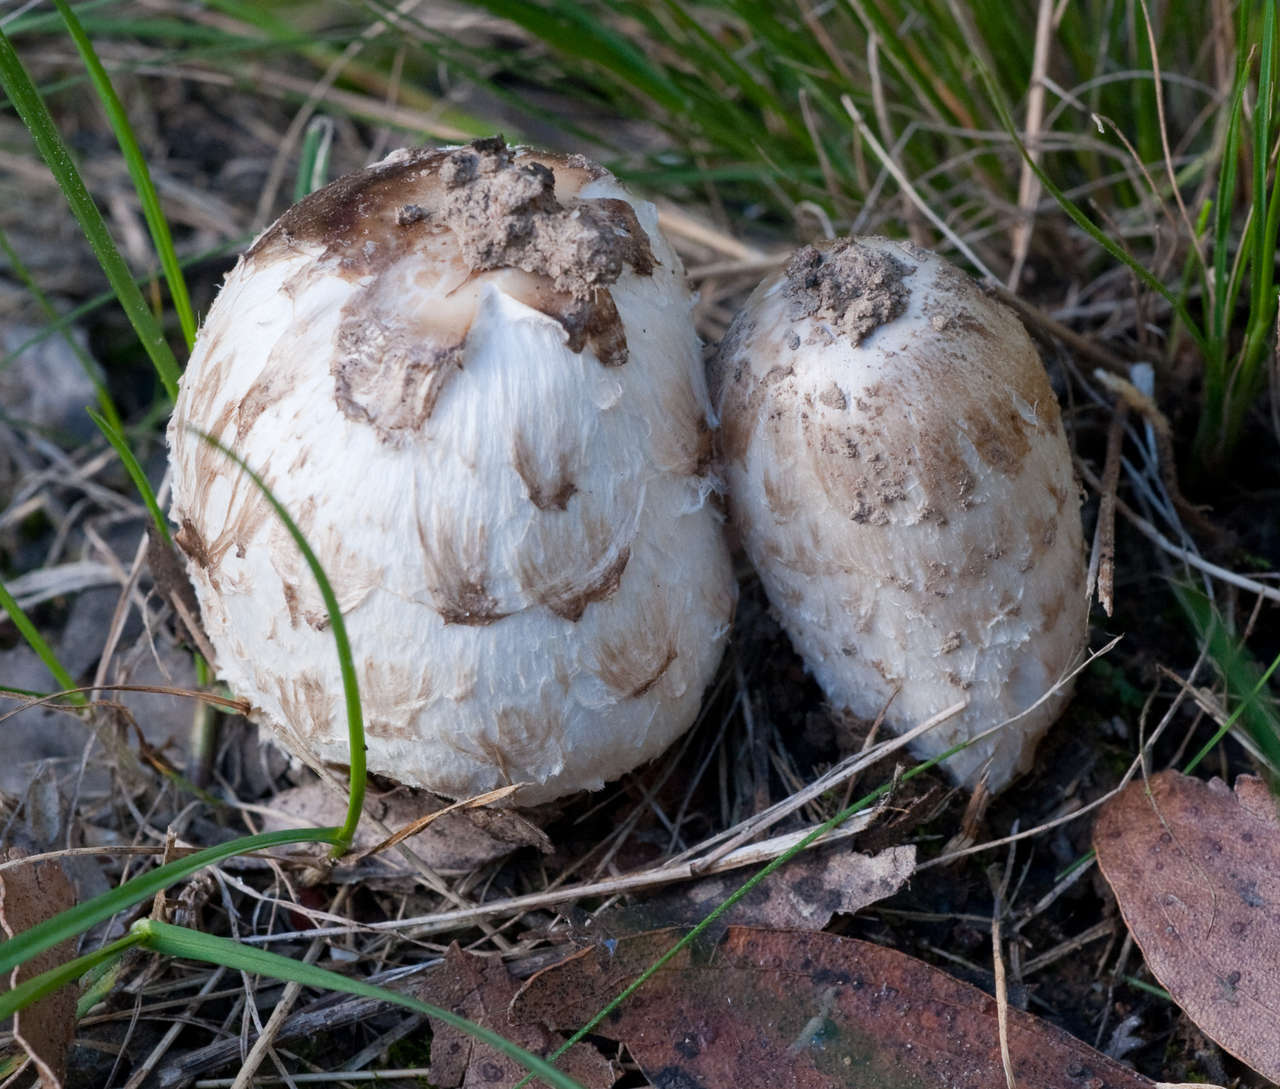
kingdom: Fungi
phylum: Basidiomycota
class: Agaricomycetes
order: Agaricales
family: Agaricaceae
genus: Coprinus
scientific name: Coprinus comatus
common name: Lawyer's wig
